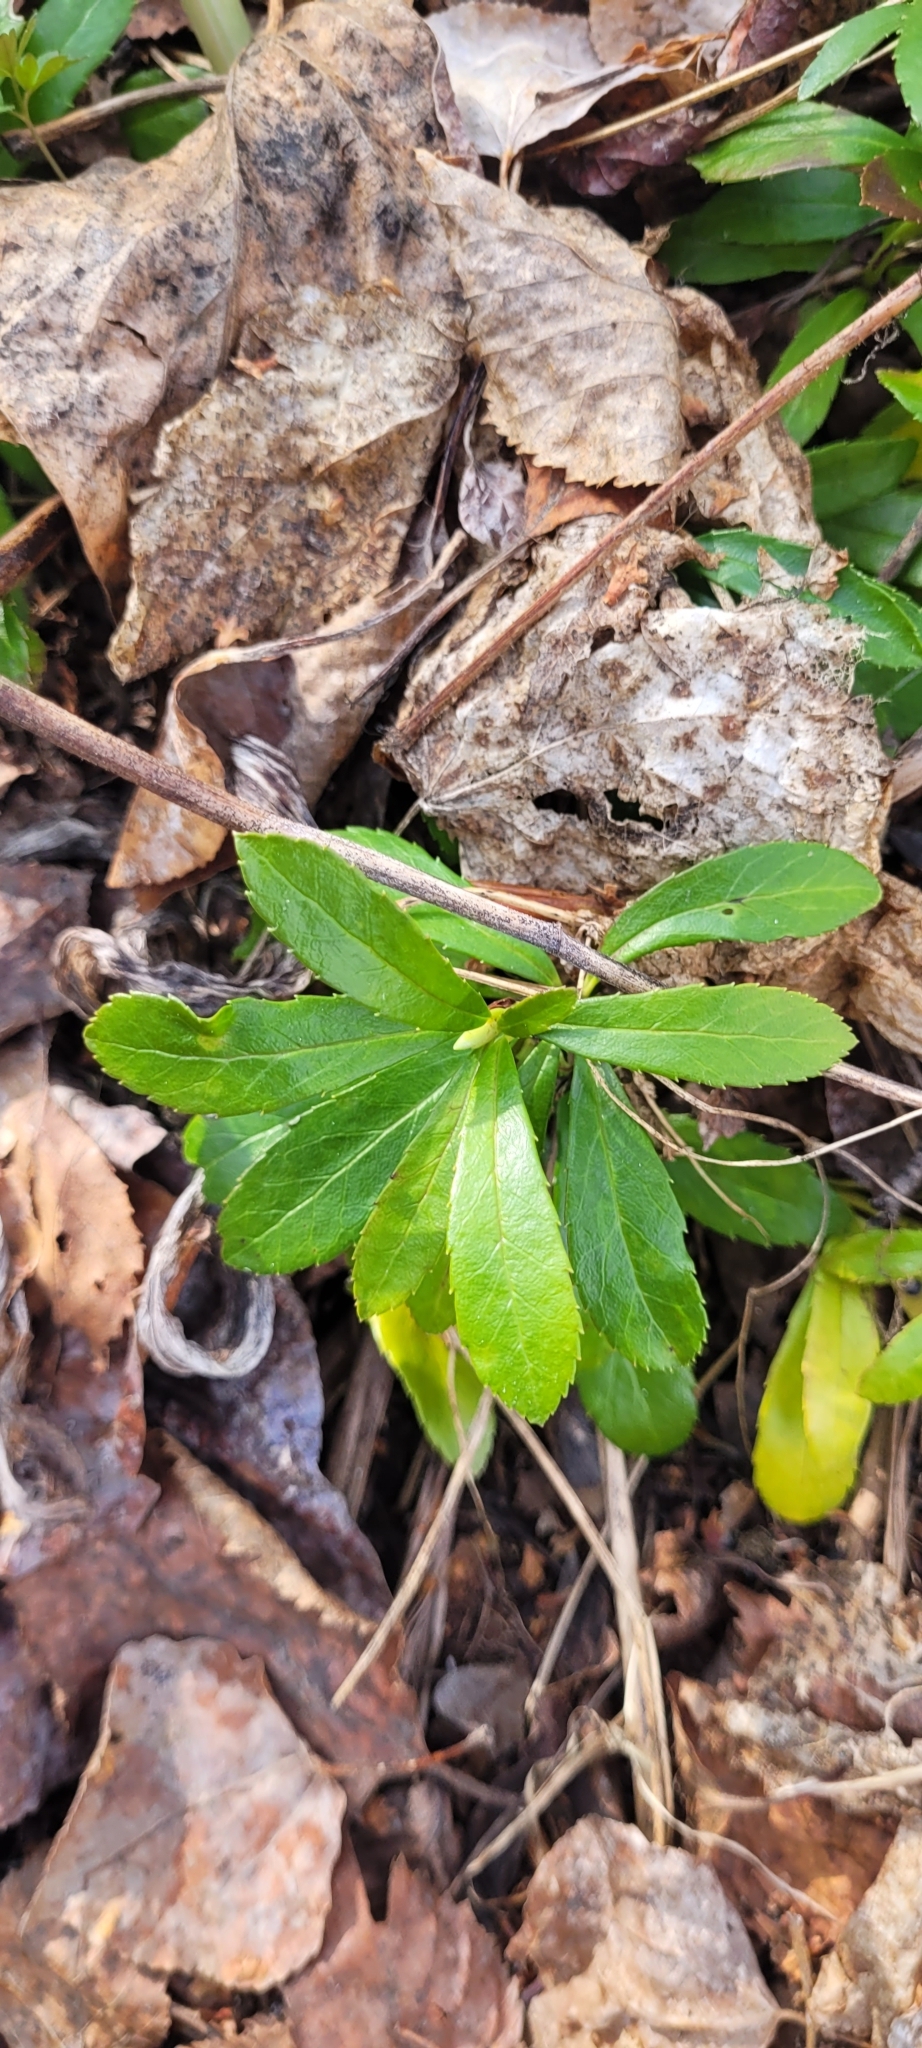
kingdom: Plantae
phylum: Tracheophyta
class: Magnoliopsida
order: Ericales
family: Ericaceae
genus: Chimaphila
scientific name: Chimaphila umbellata
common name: Pipsissewa
